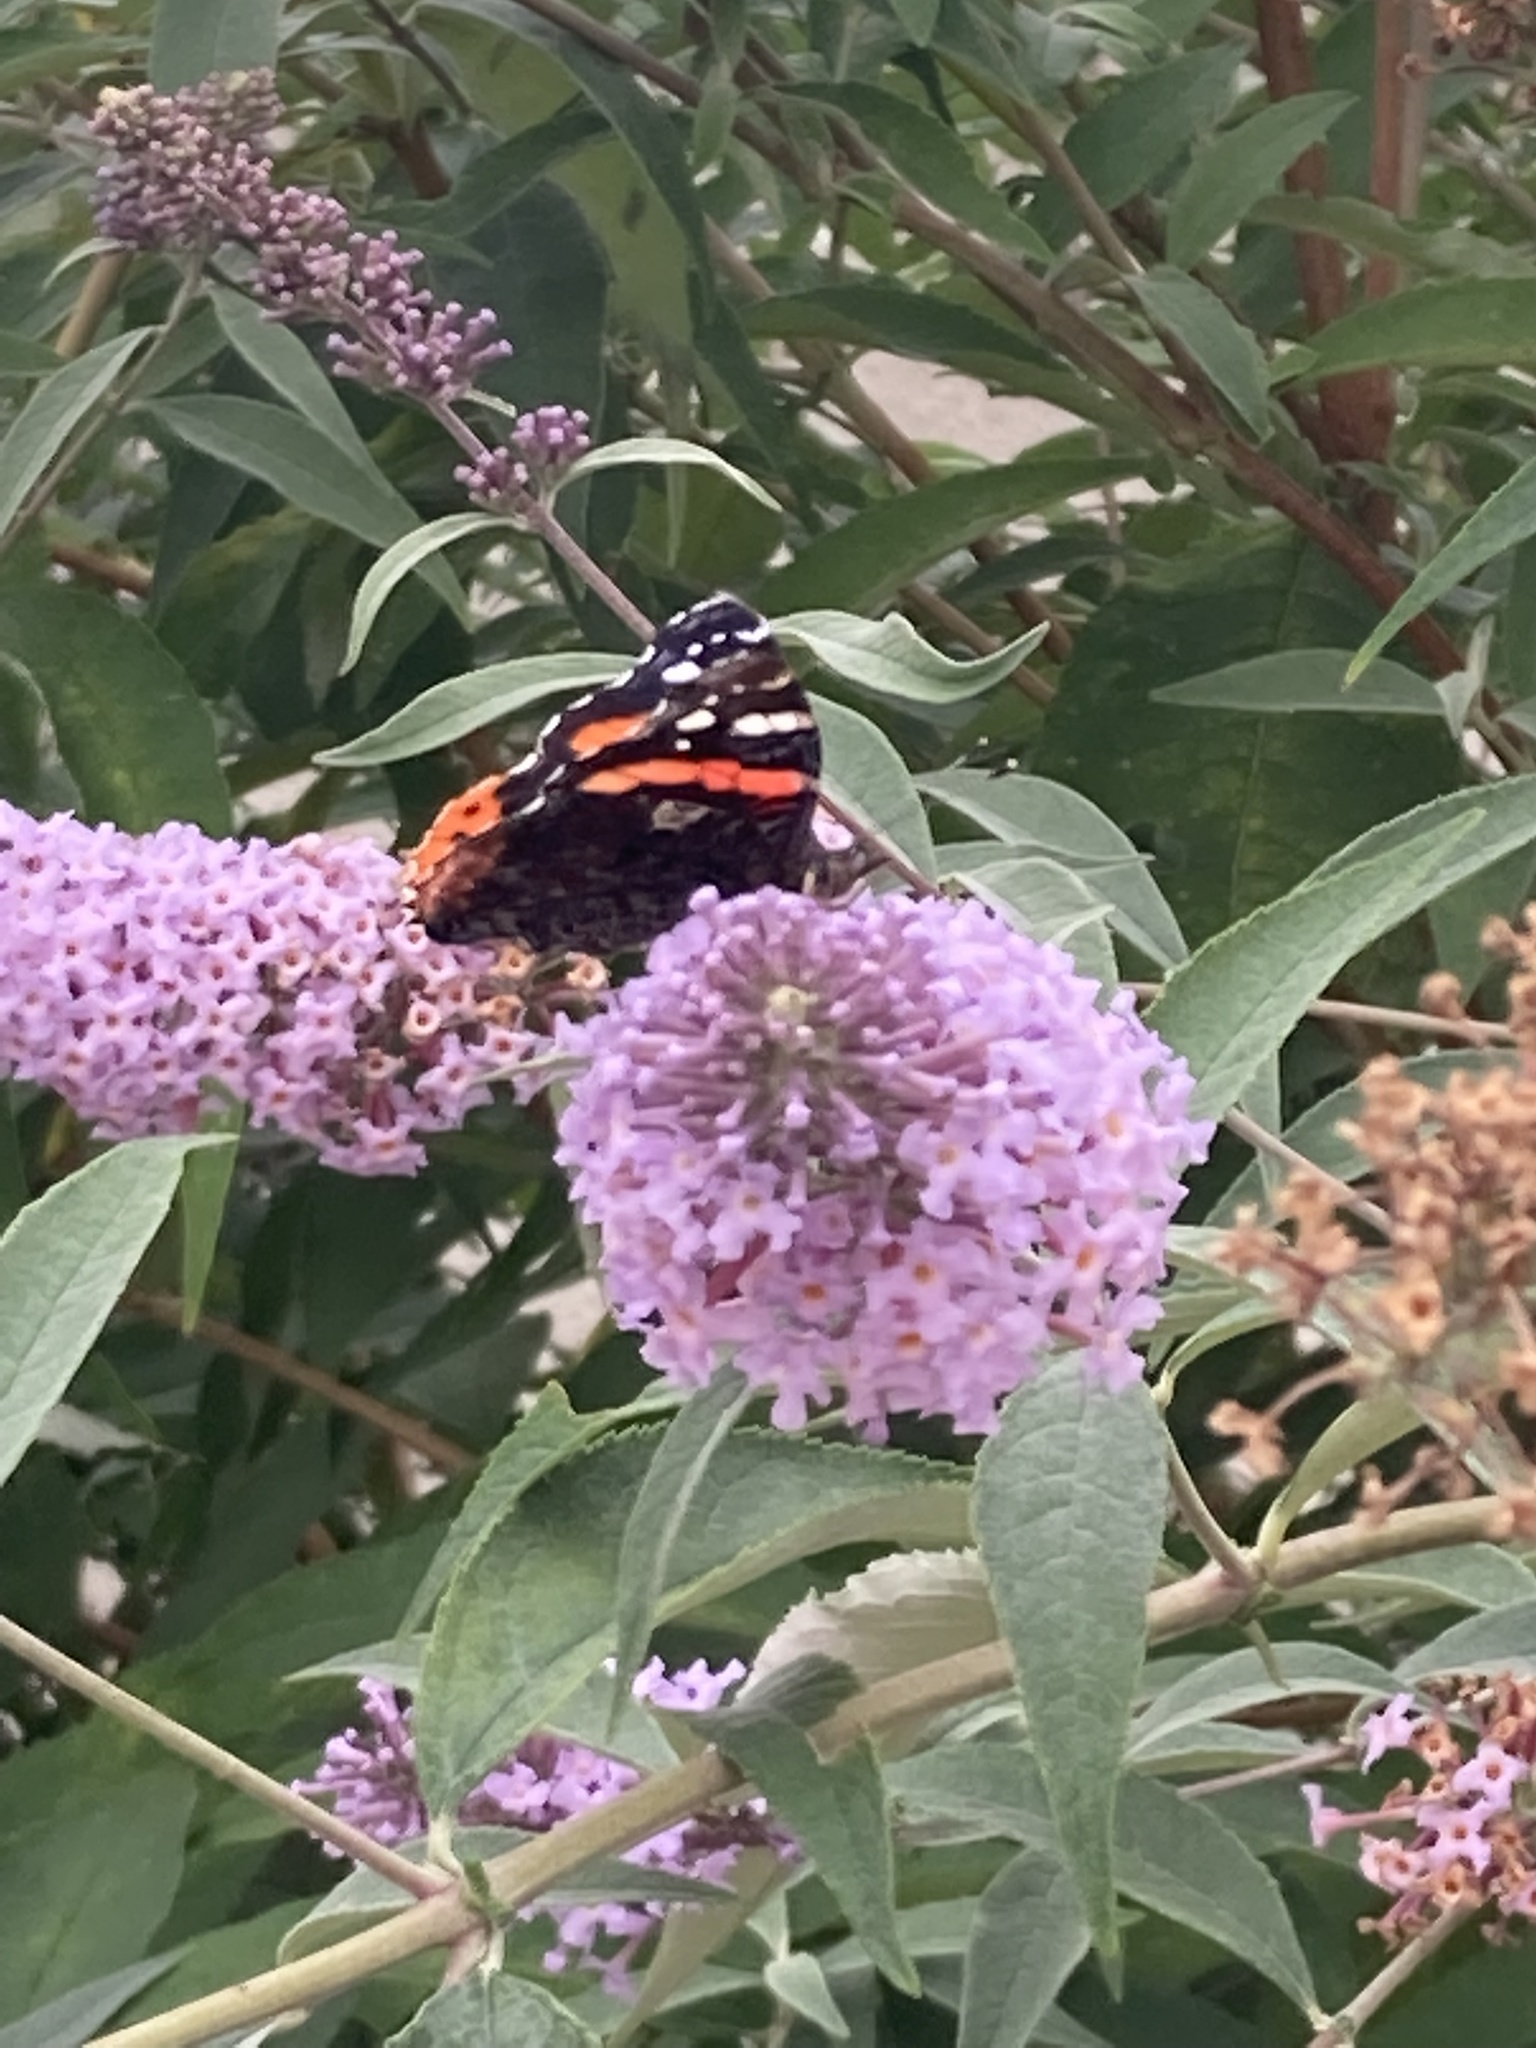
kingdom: Animalia
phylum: Arthropoda
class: Insecta
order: Lepidoptera
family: Nymphalidae
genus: Vanessa
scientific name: Vanessa atalanta
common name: Red admiral
